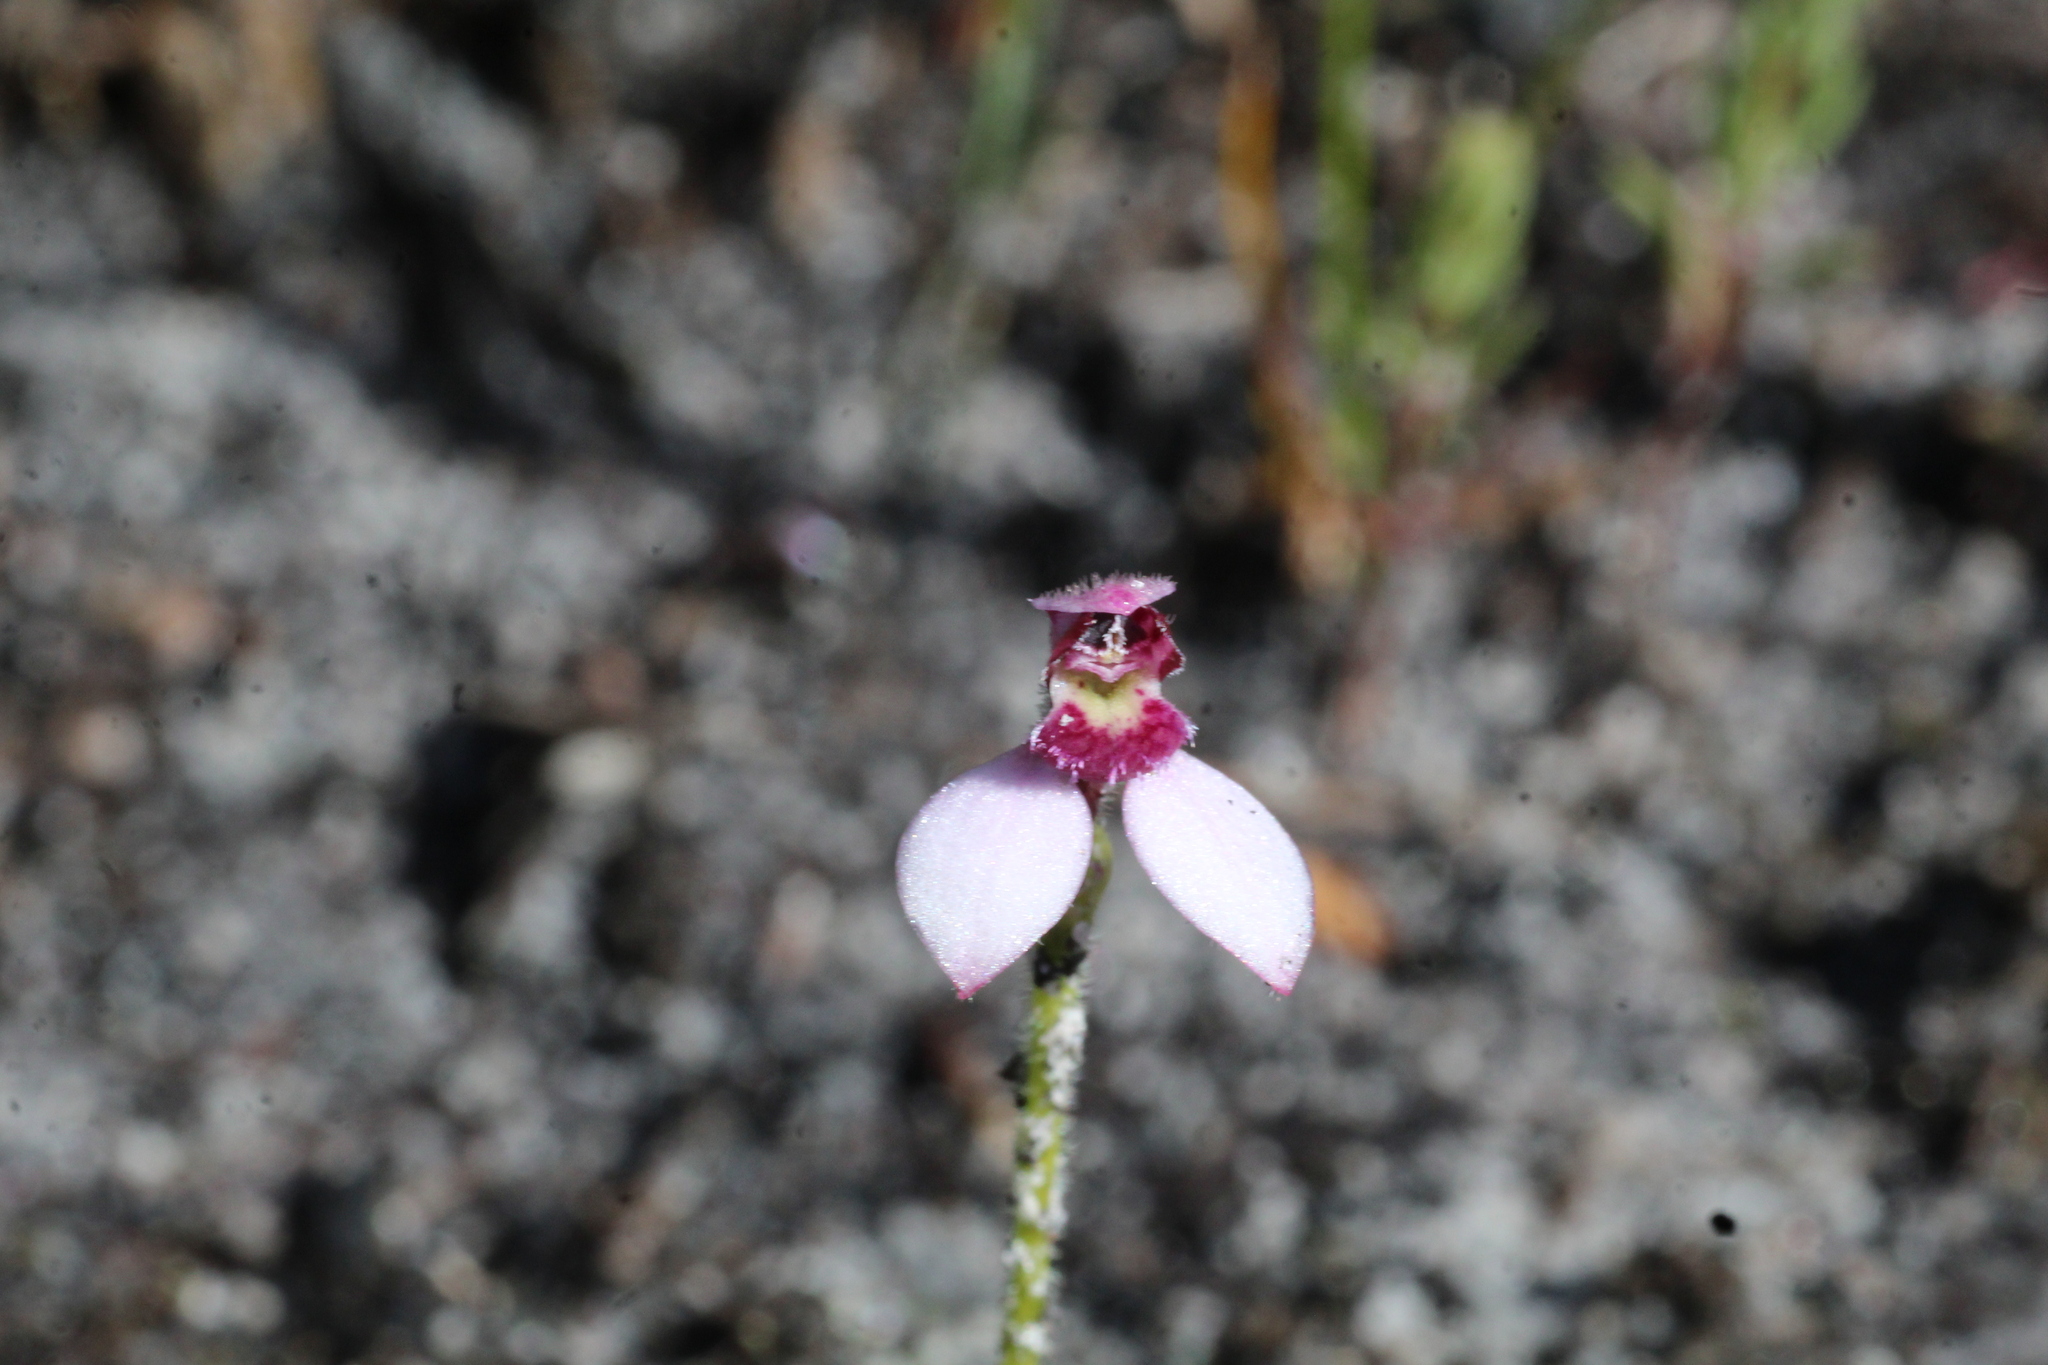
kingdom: Plantae
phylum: Tracheophyta
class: Liliopsida
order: Asparagales
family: Orchidaceae
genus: Eriochilus
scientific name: Eriochilus scaber
